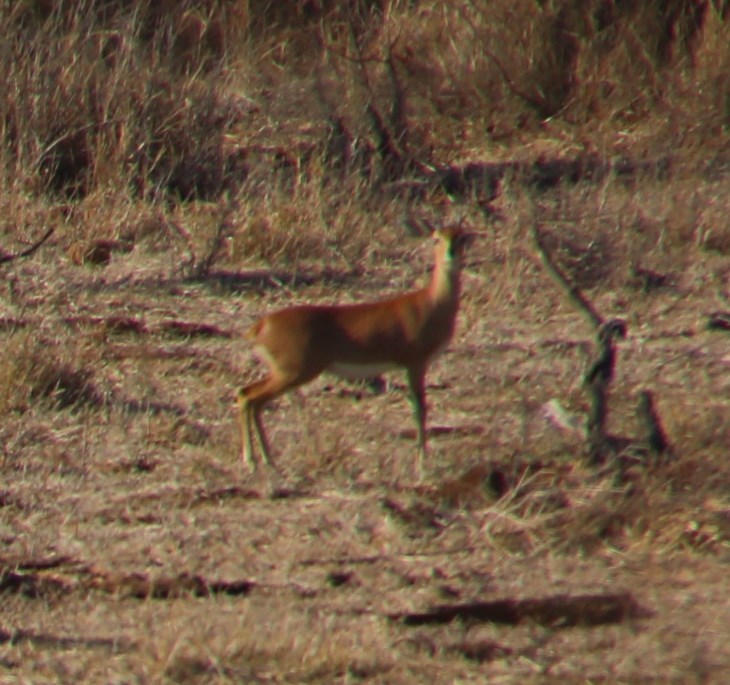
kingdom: Animalia
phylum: Chordata
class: Mammalia
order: Artiodactyla
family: Bovidae
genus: Raphicerus
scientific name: Raphicerus campestris
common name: Steenbok
